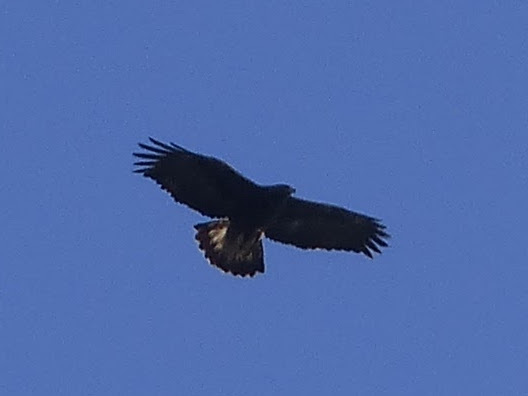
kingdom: Animalia
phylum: Chordata
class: Aves
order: Accipitriformes
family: Accipitridae
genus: Aquila
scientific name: Aquila chrysaetos
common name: Golden eagle
